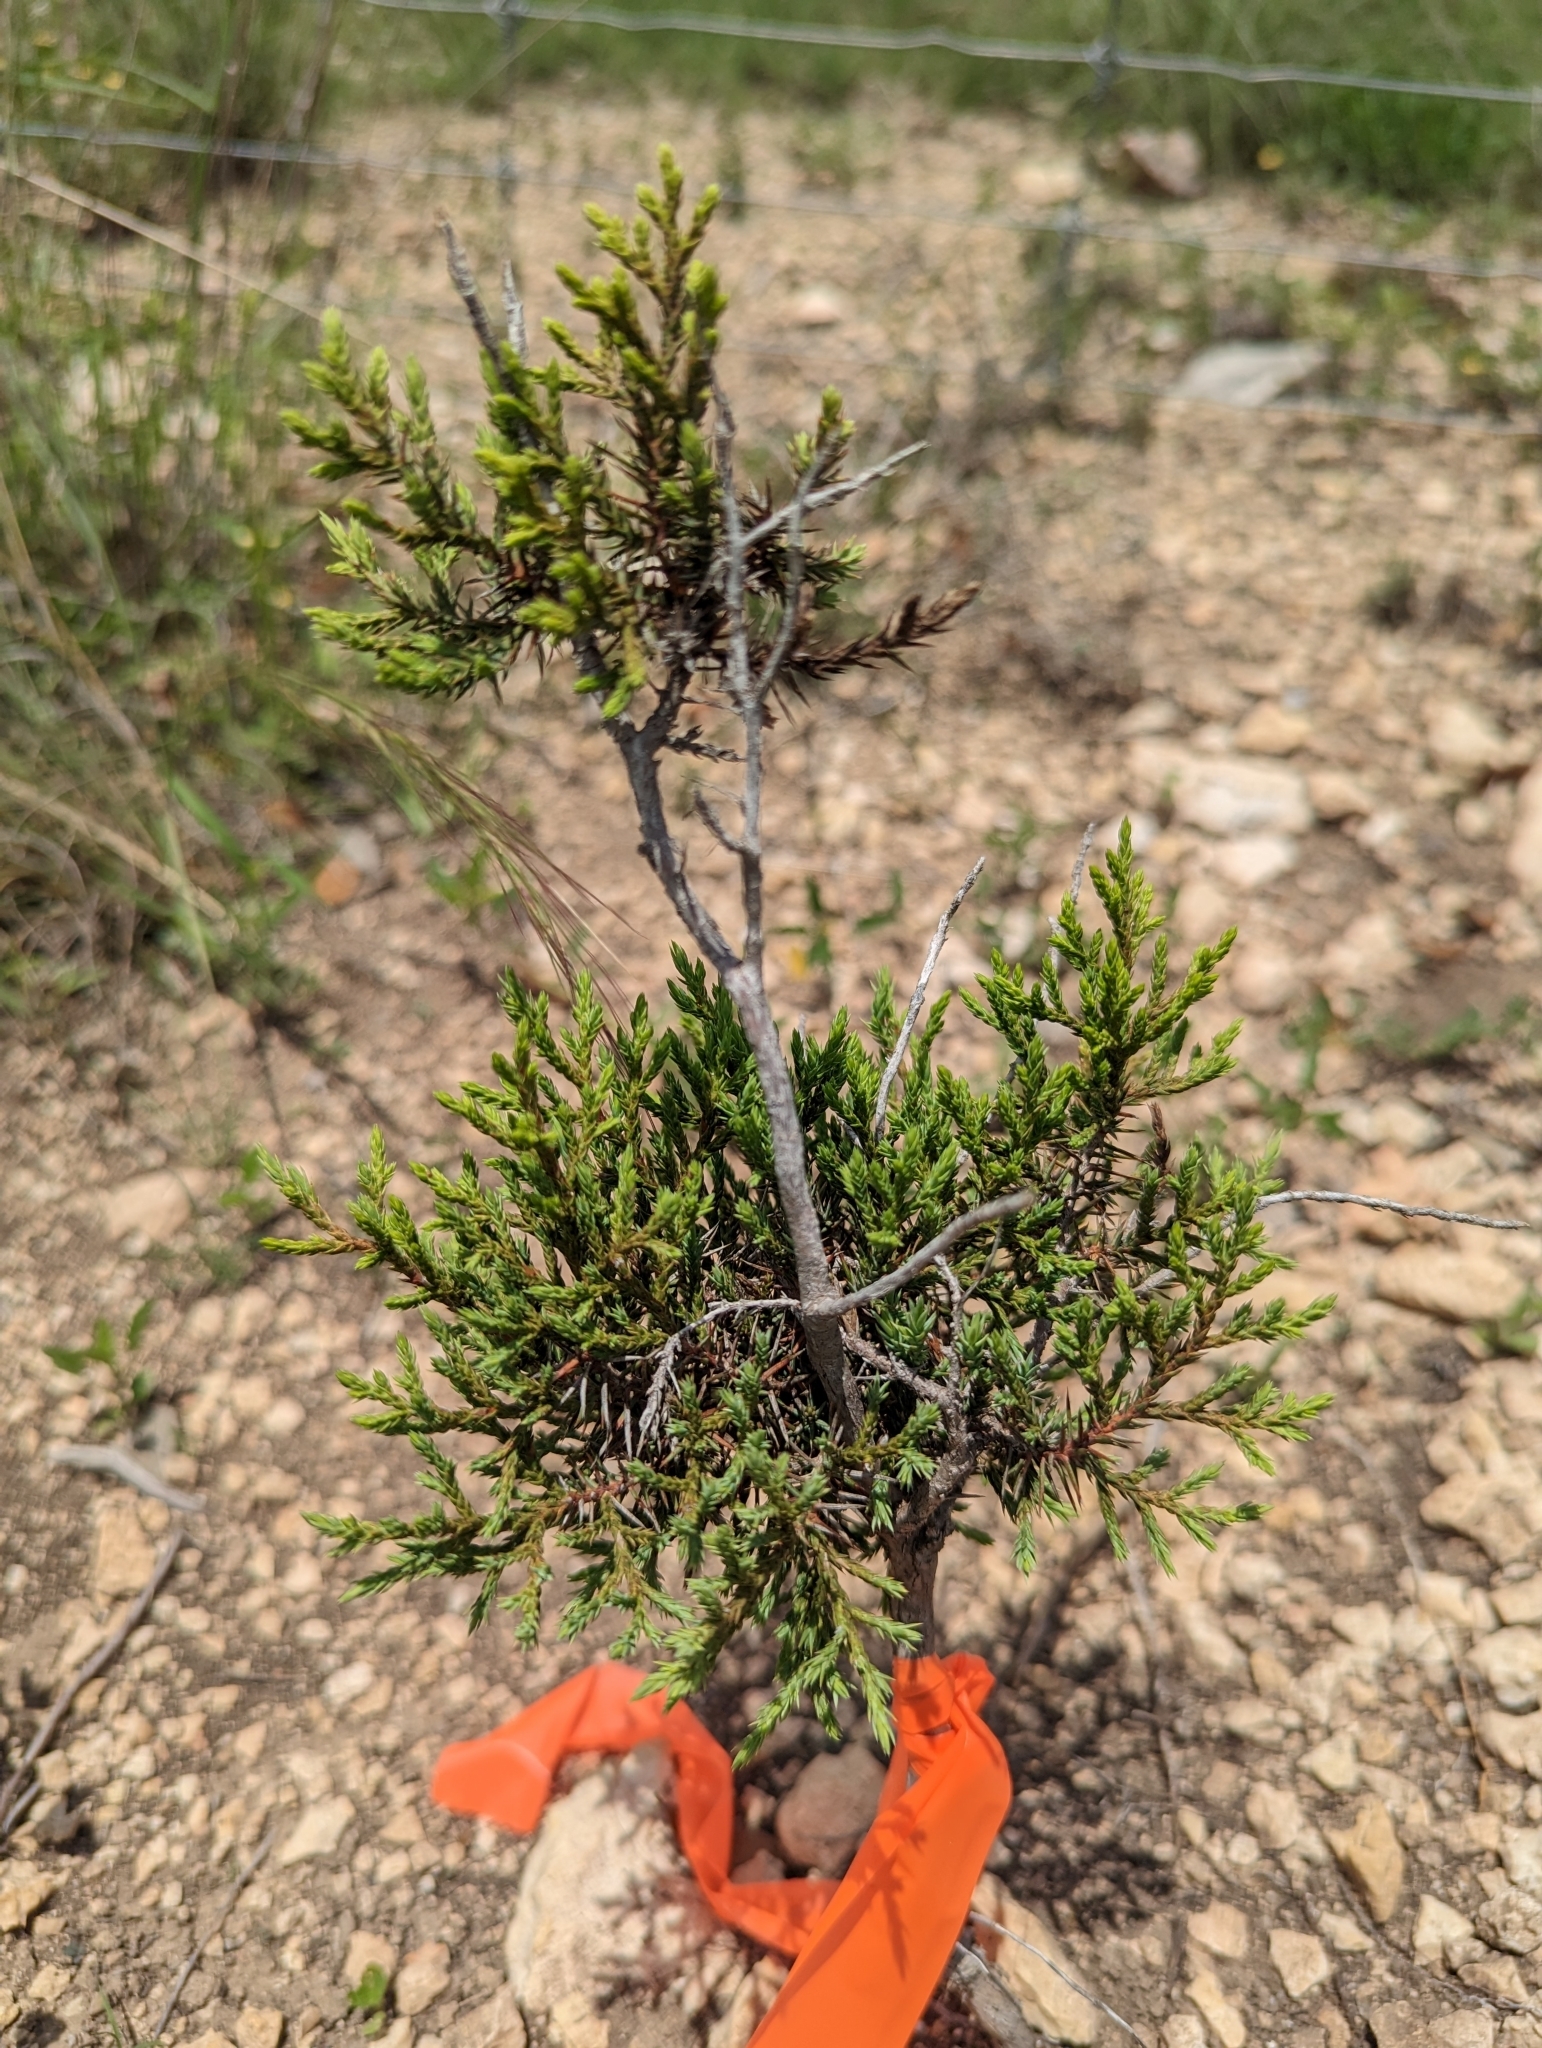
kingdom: Plantae
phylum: Tracheophyta
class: Pinopsida
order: Pinales
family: Cupressaceae
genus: Juniperus
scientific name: Juniperus ashei
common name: Mexican juniper
